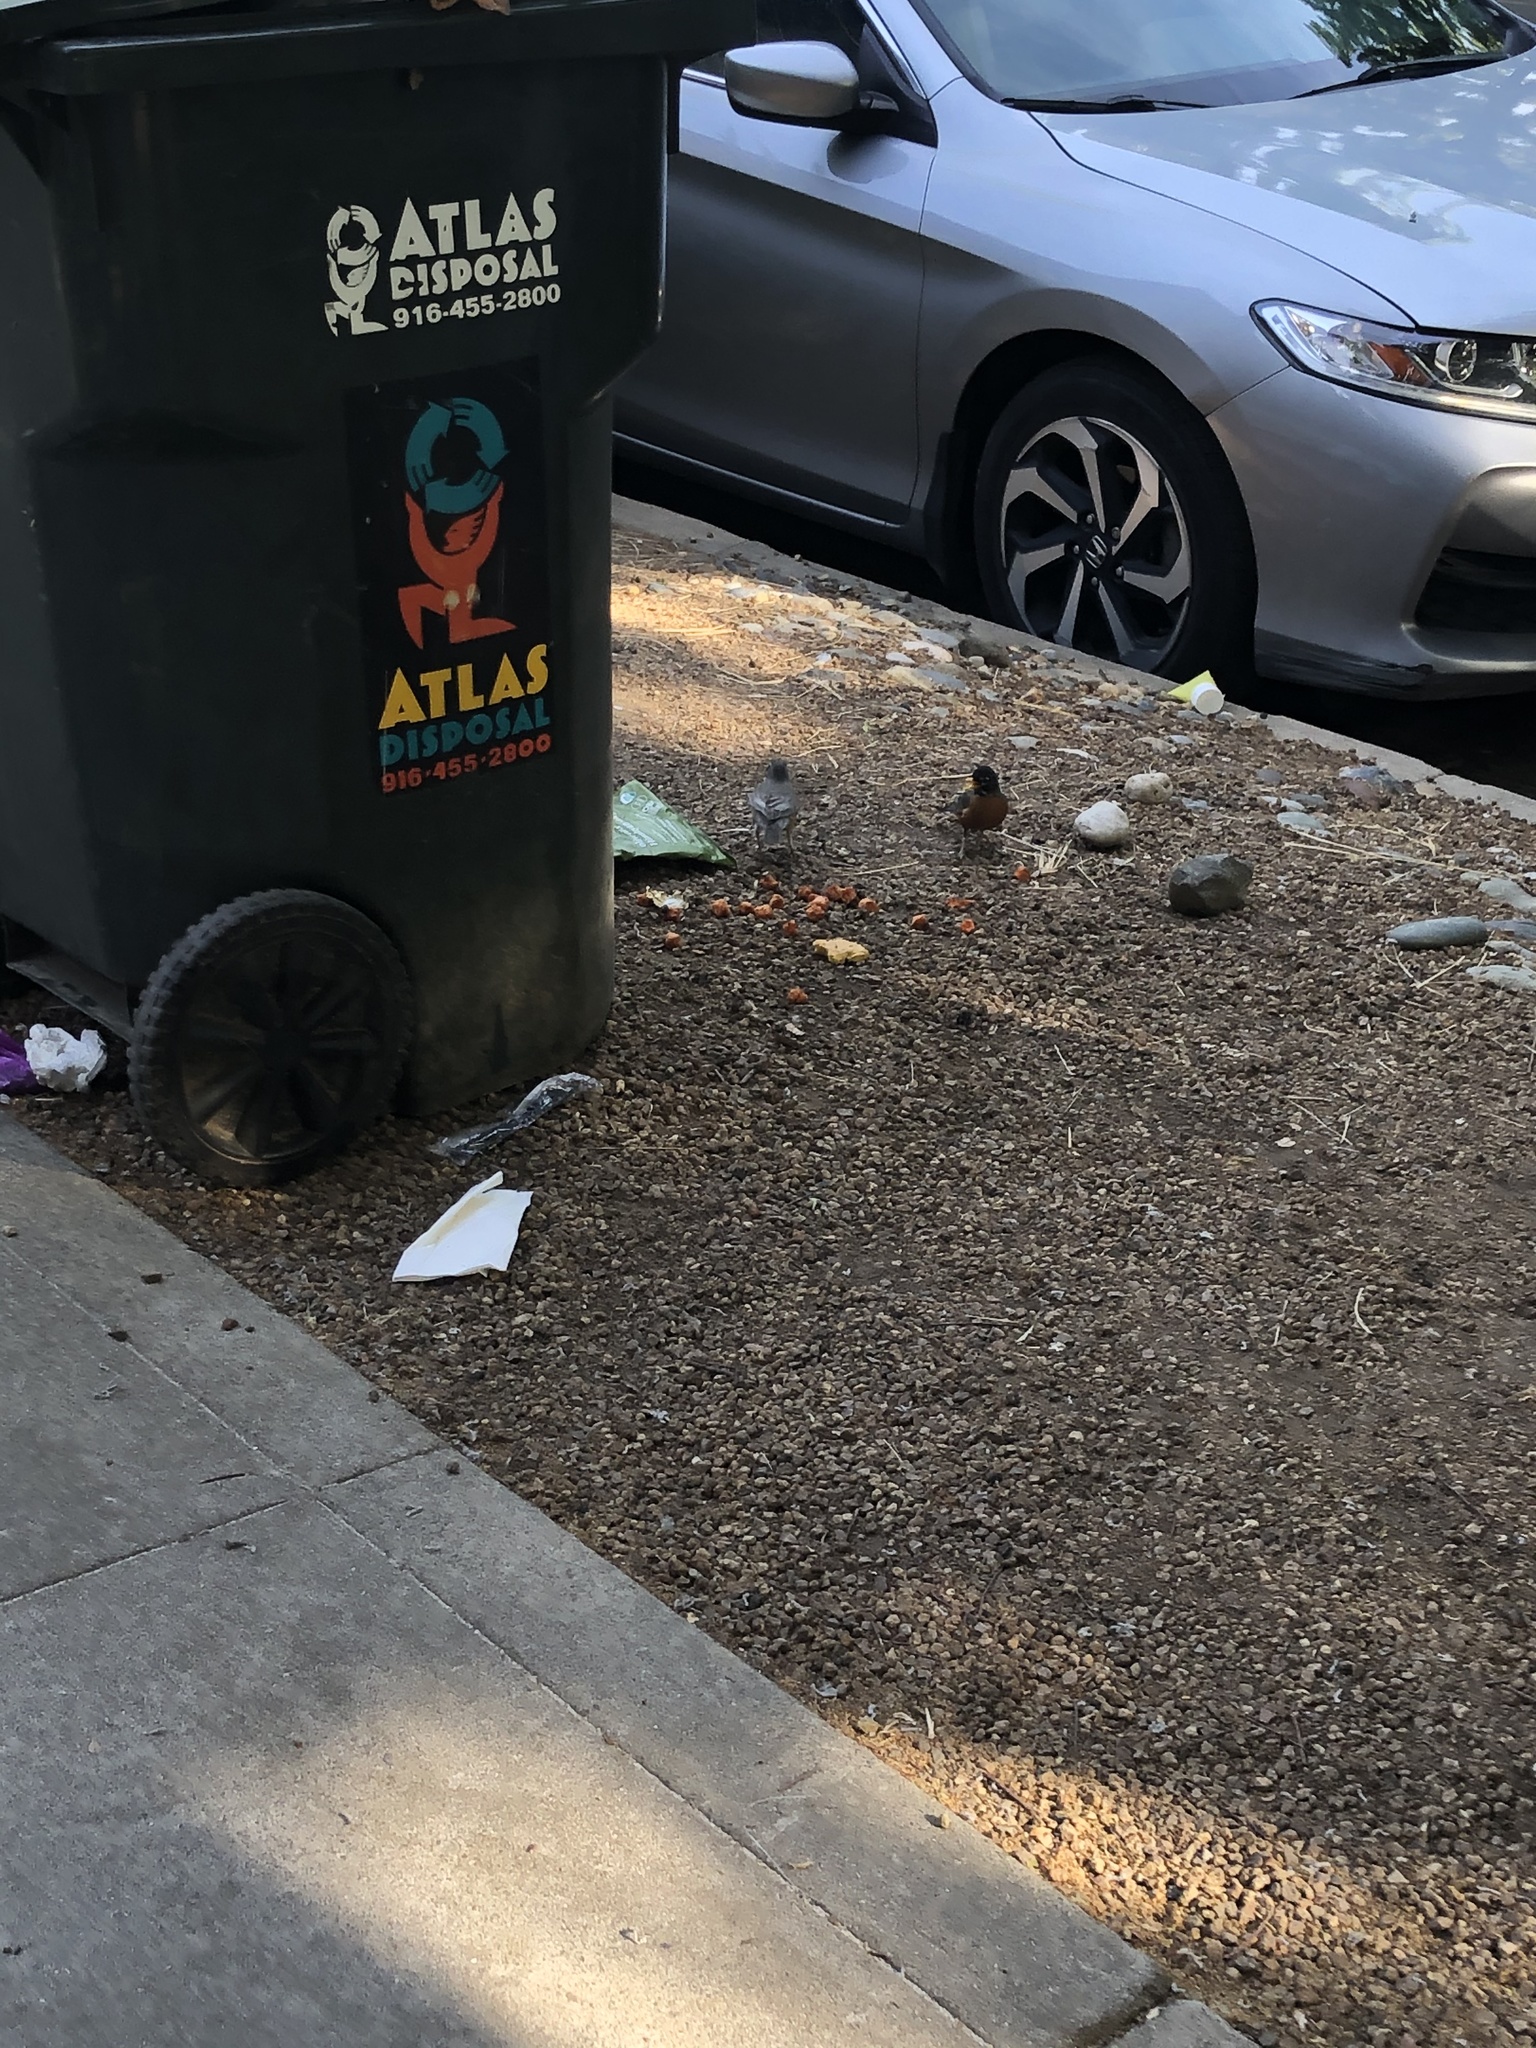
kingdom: Animalia
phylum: Chordata
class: Aves
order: Passeriformes
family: Turdidae
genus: Turdus
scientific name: Turdus migratorius
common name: American robin
